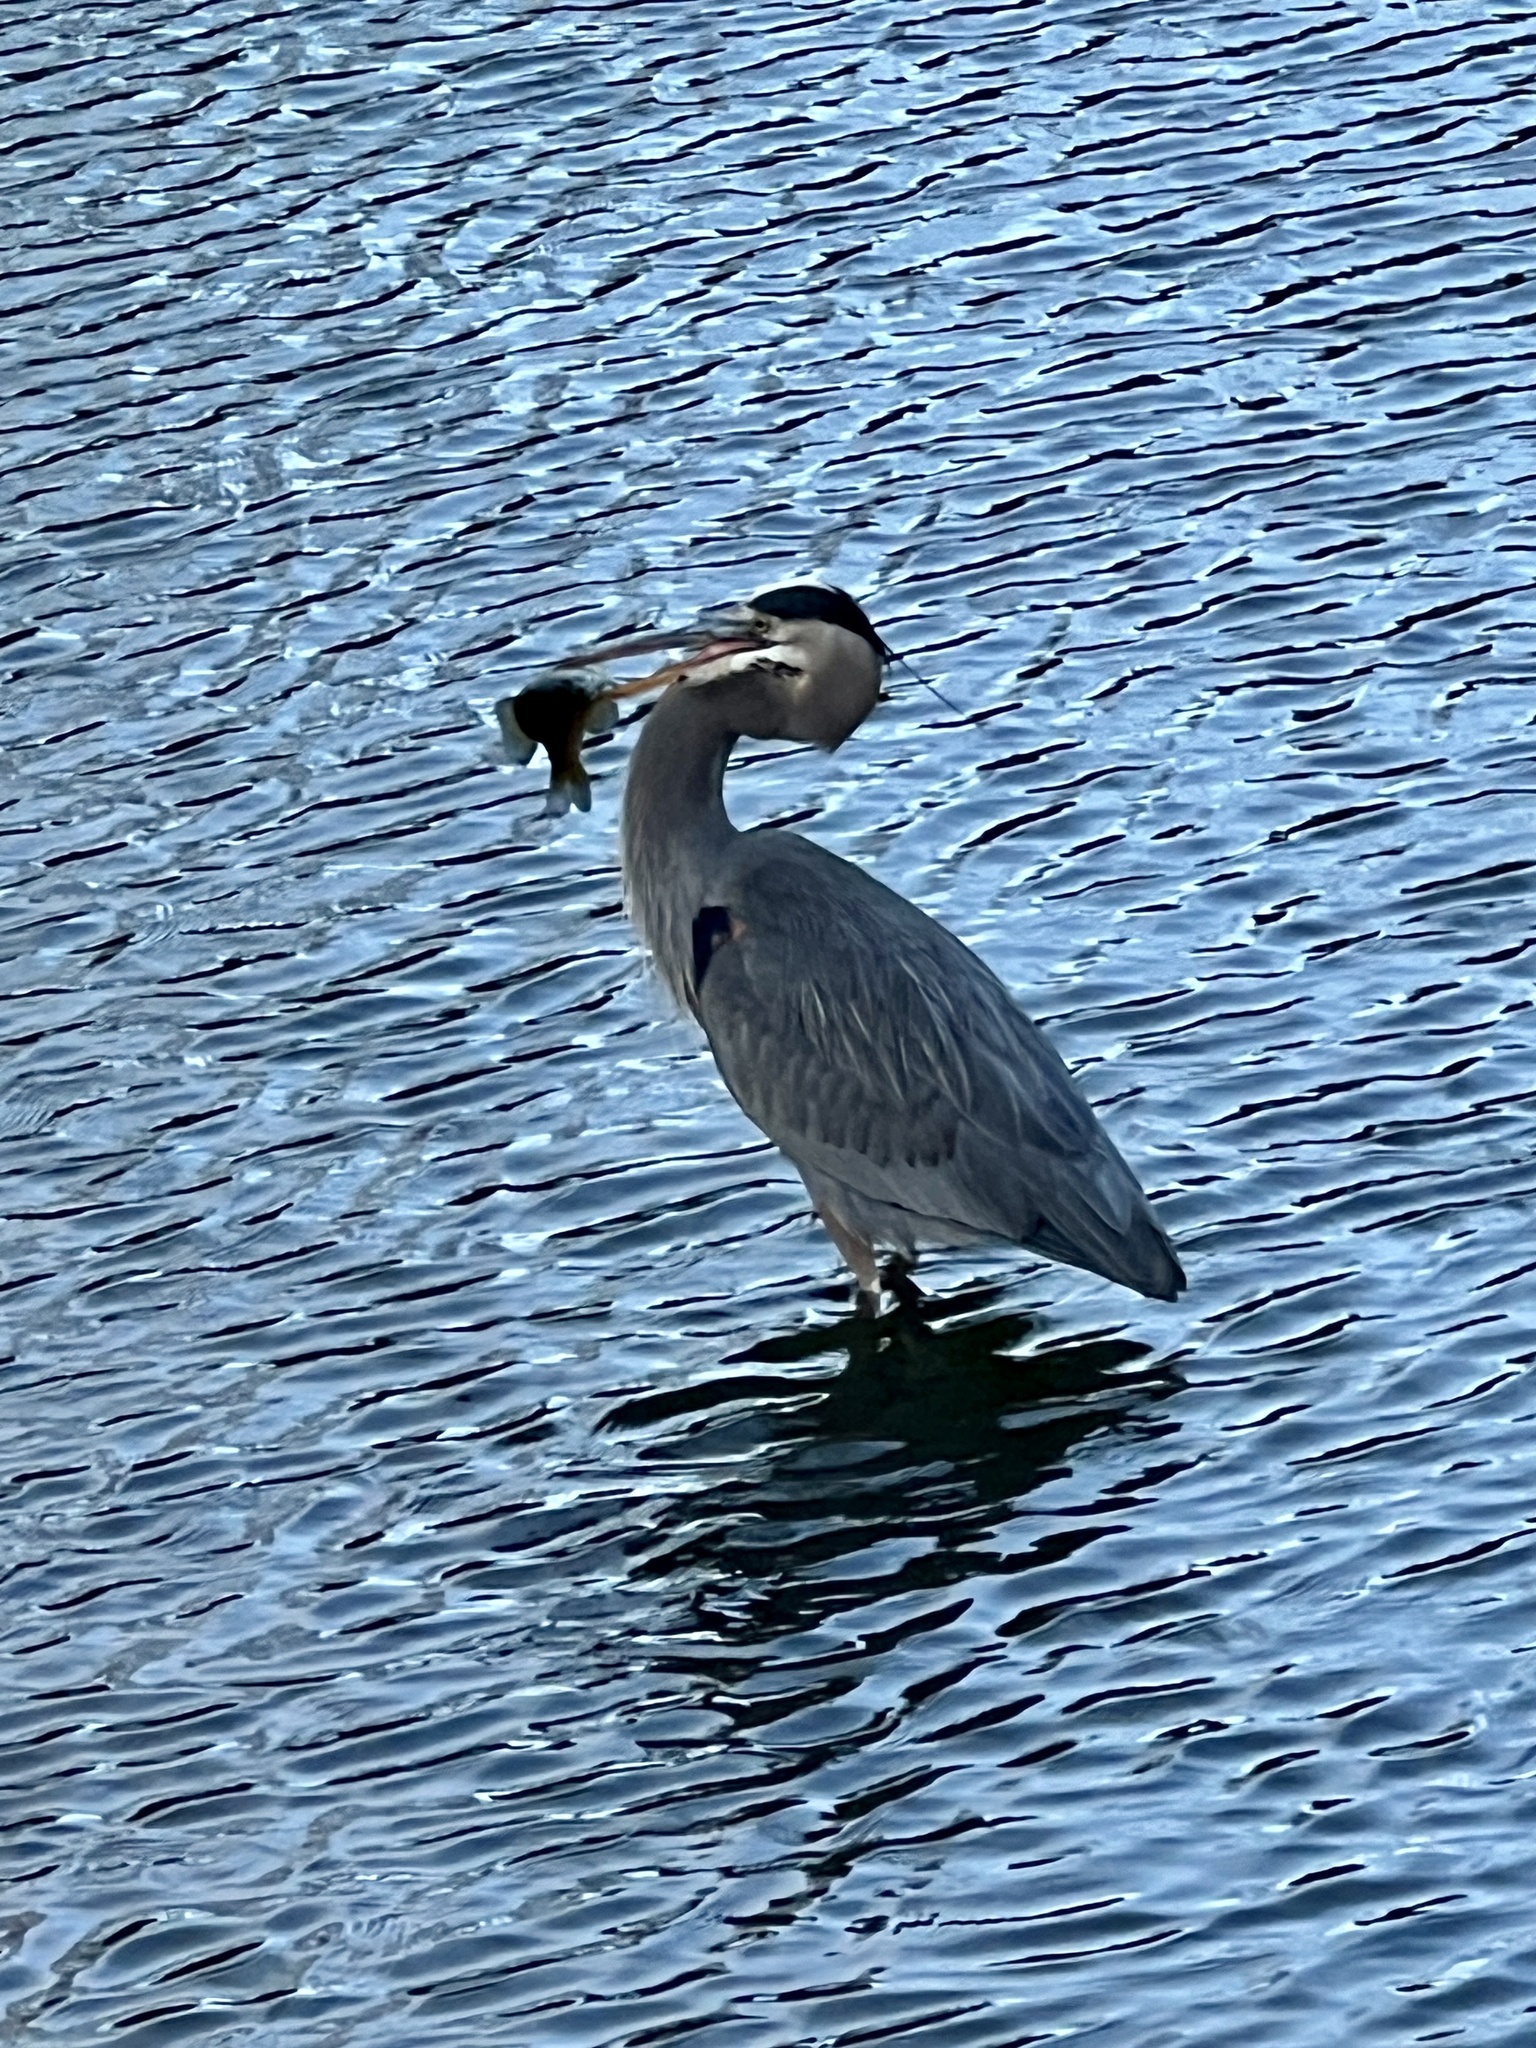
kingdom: Animalia
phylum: Chordata
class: Aves
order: Pelecaniformes
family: Ardeidae
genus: Ardea
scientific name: Ardea herodias
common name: Great blue heron
